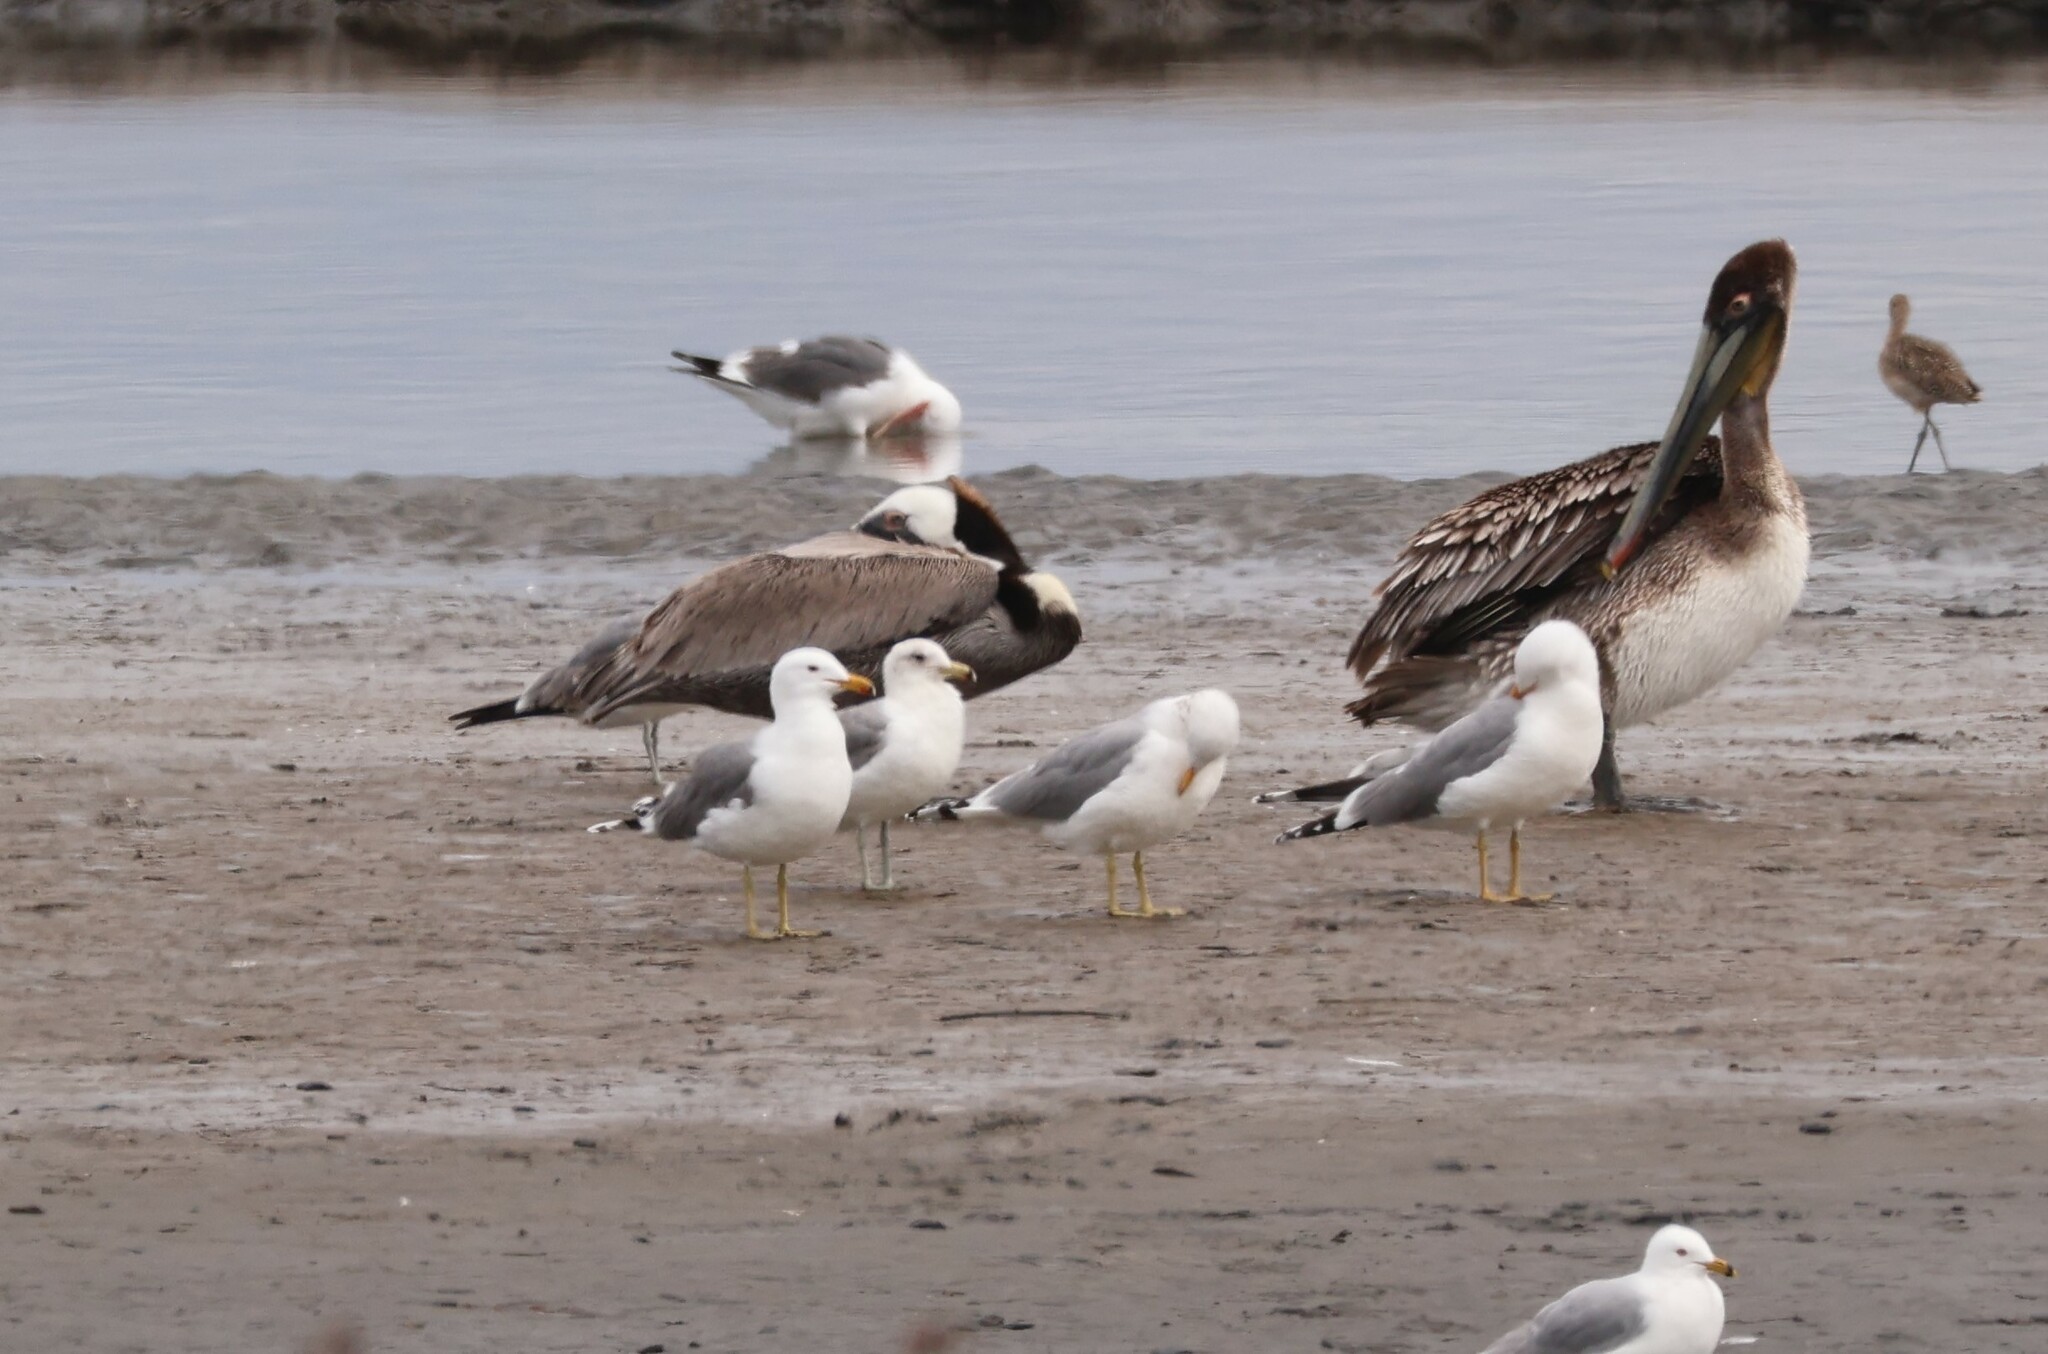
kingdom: Animalia
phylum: Chordata
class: Aves
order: Charadriiformes
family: Laridae
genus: Larus
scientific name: Larus californicus
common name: California gull
